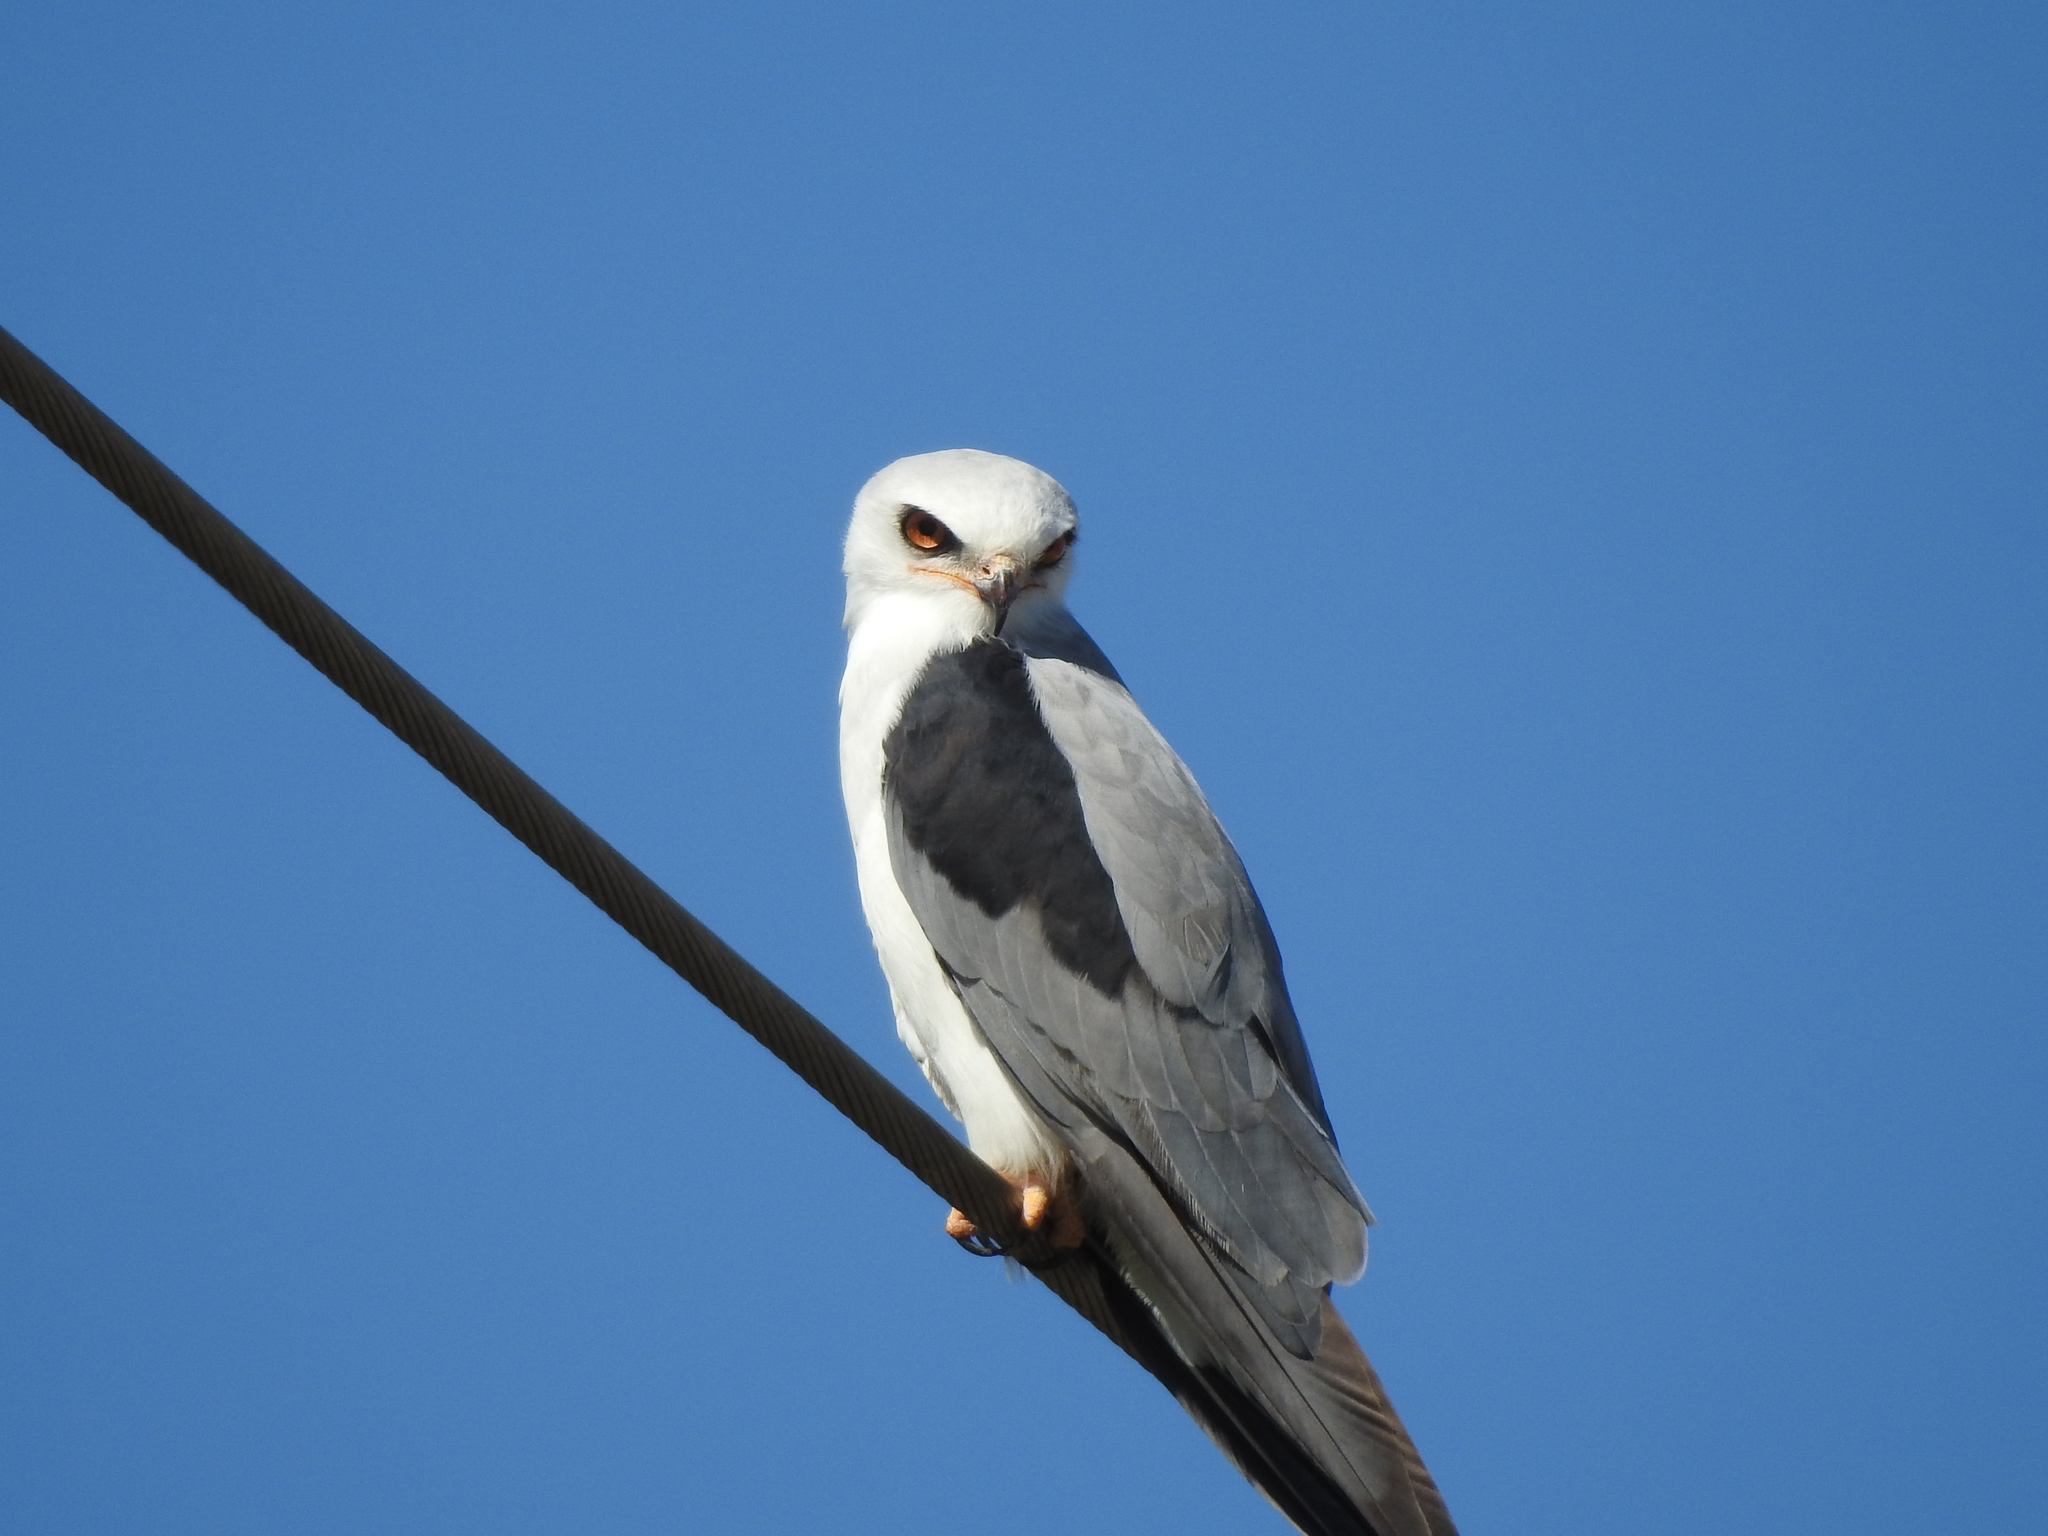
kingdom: Animalia
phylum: Chordata
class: Aves
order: Accipitriformes
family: Accipitridae
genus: Elanus
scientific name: Elanus leucurus
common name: White-tailed kite
